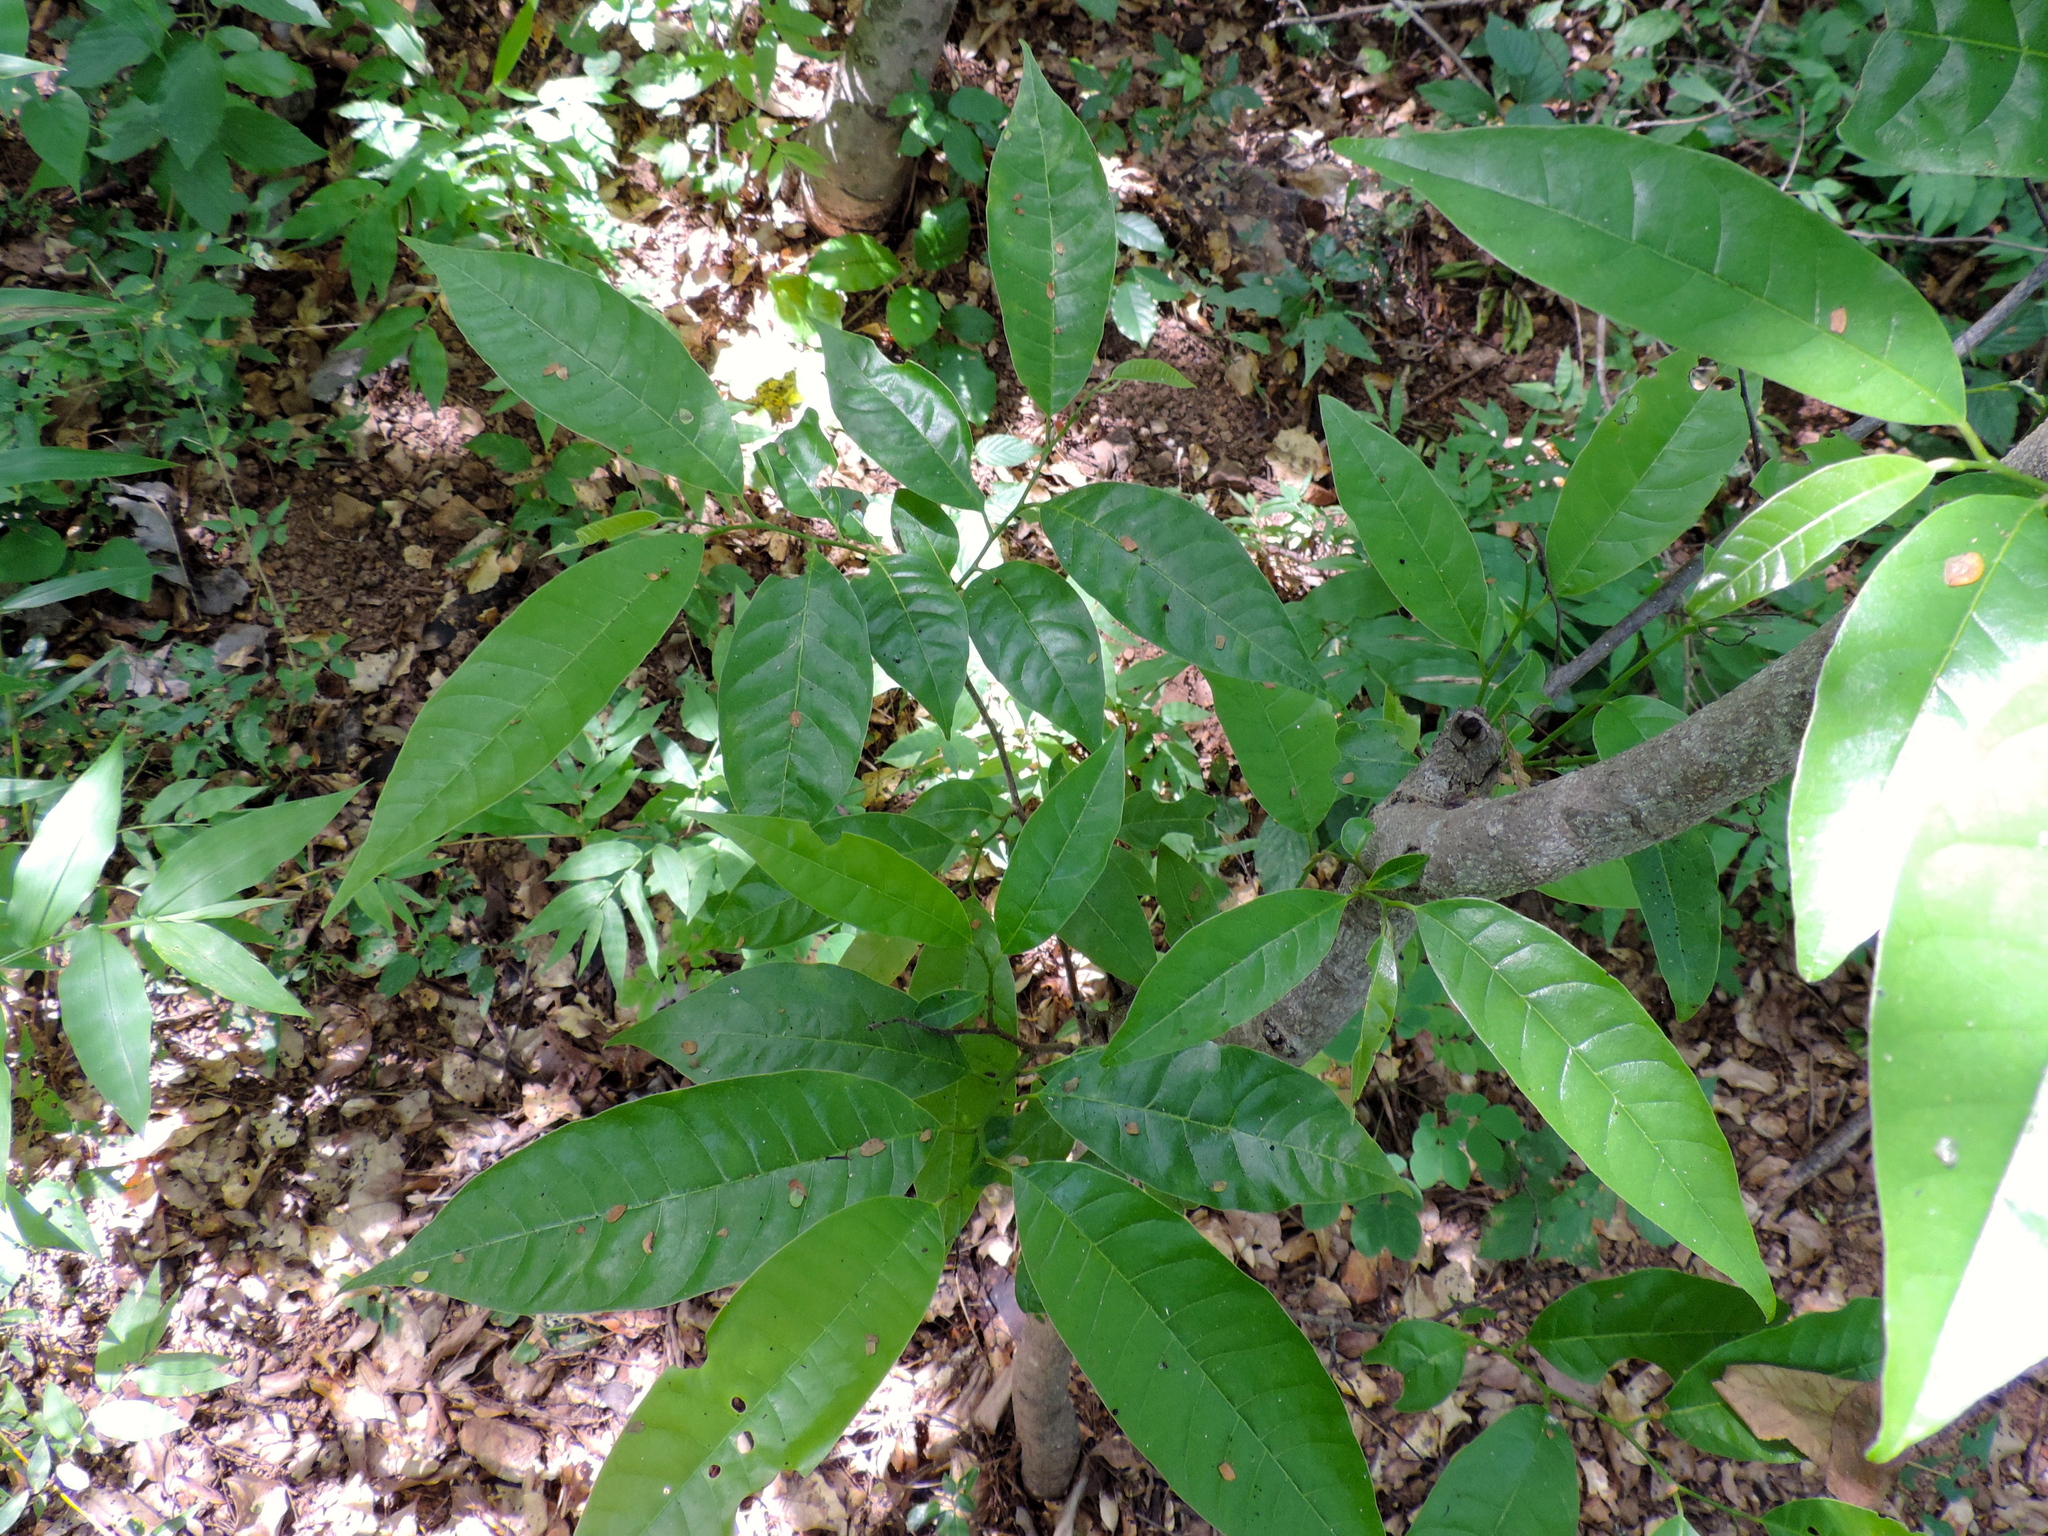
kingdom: Plantae
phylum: Tracheophyta
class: Magnoliopsida
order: Magnoliales
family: Annonaceae
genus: Annona
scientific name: Annona cherimola
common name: Cherimoya
